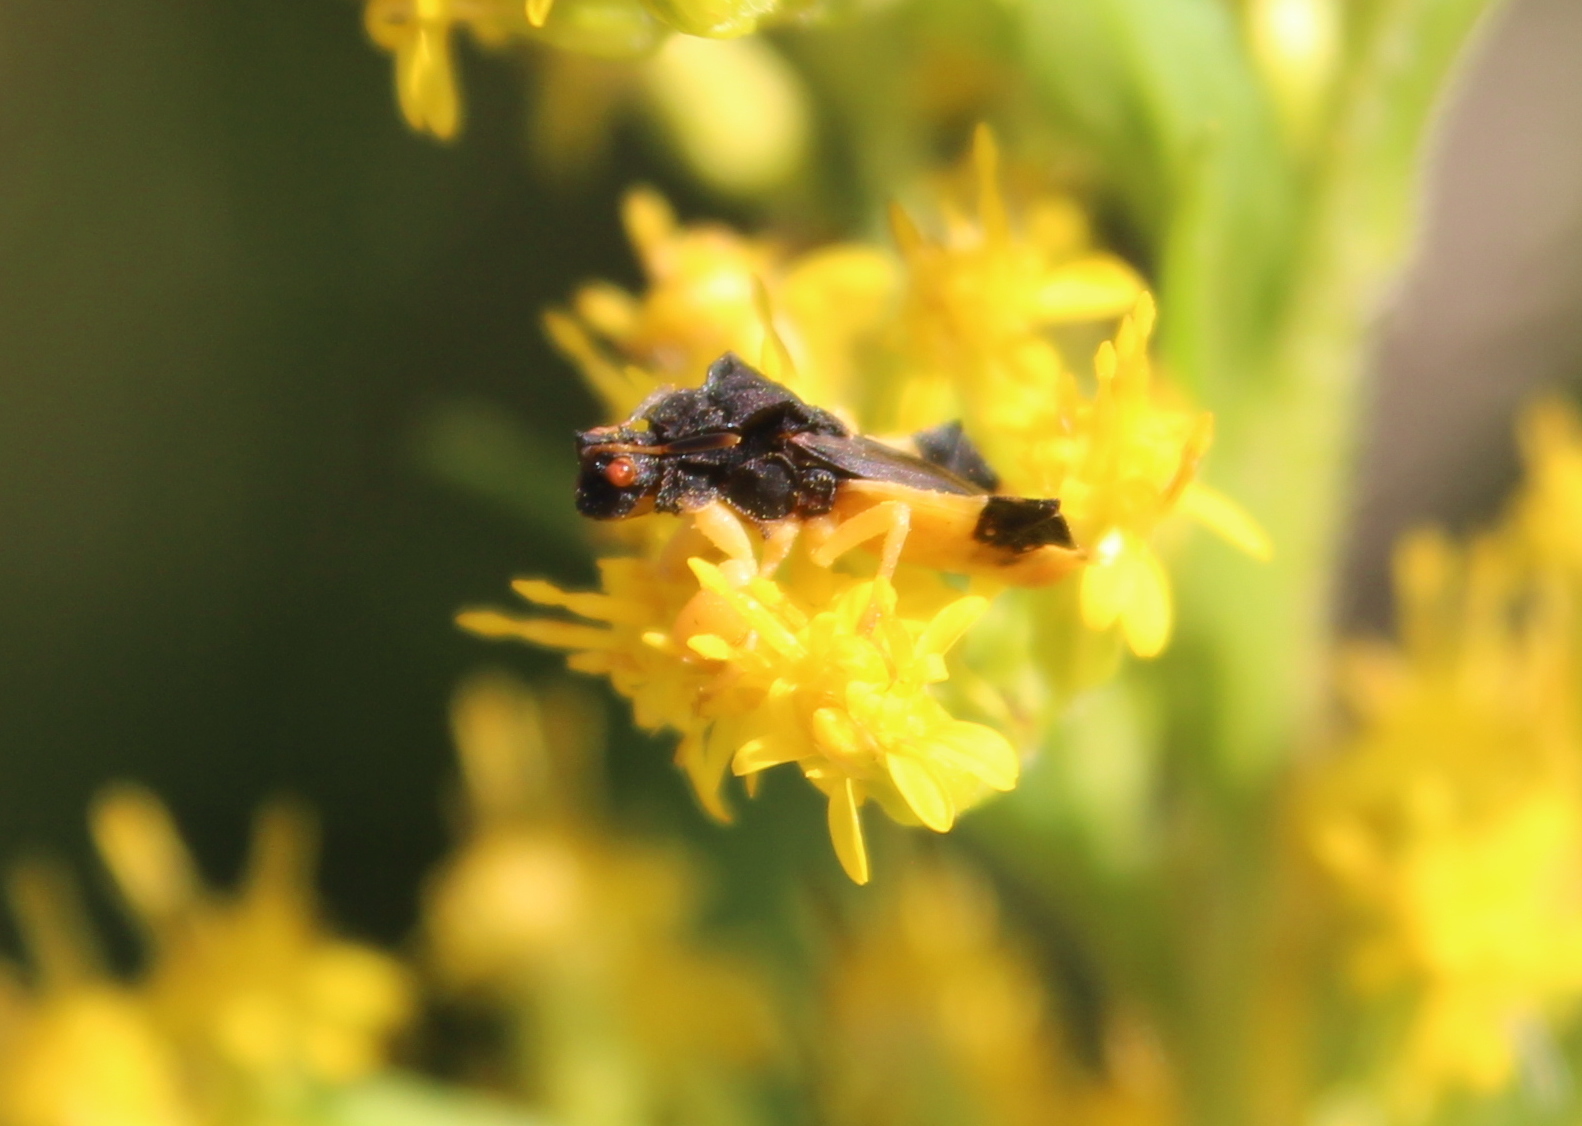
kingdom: Animalia
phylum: Arthropoda
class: Insecta
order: Hemiptera
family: Reduviidae
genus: Phymata
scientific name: Phymata pennsylvanica
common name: Pennsylvania ambush bug
